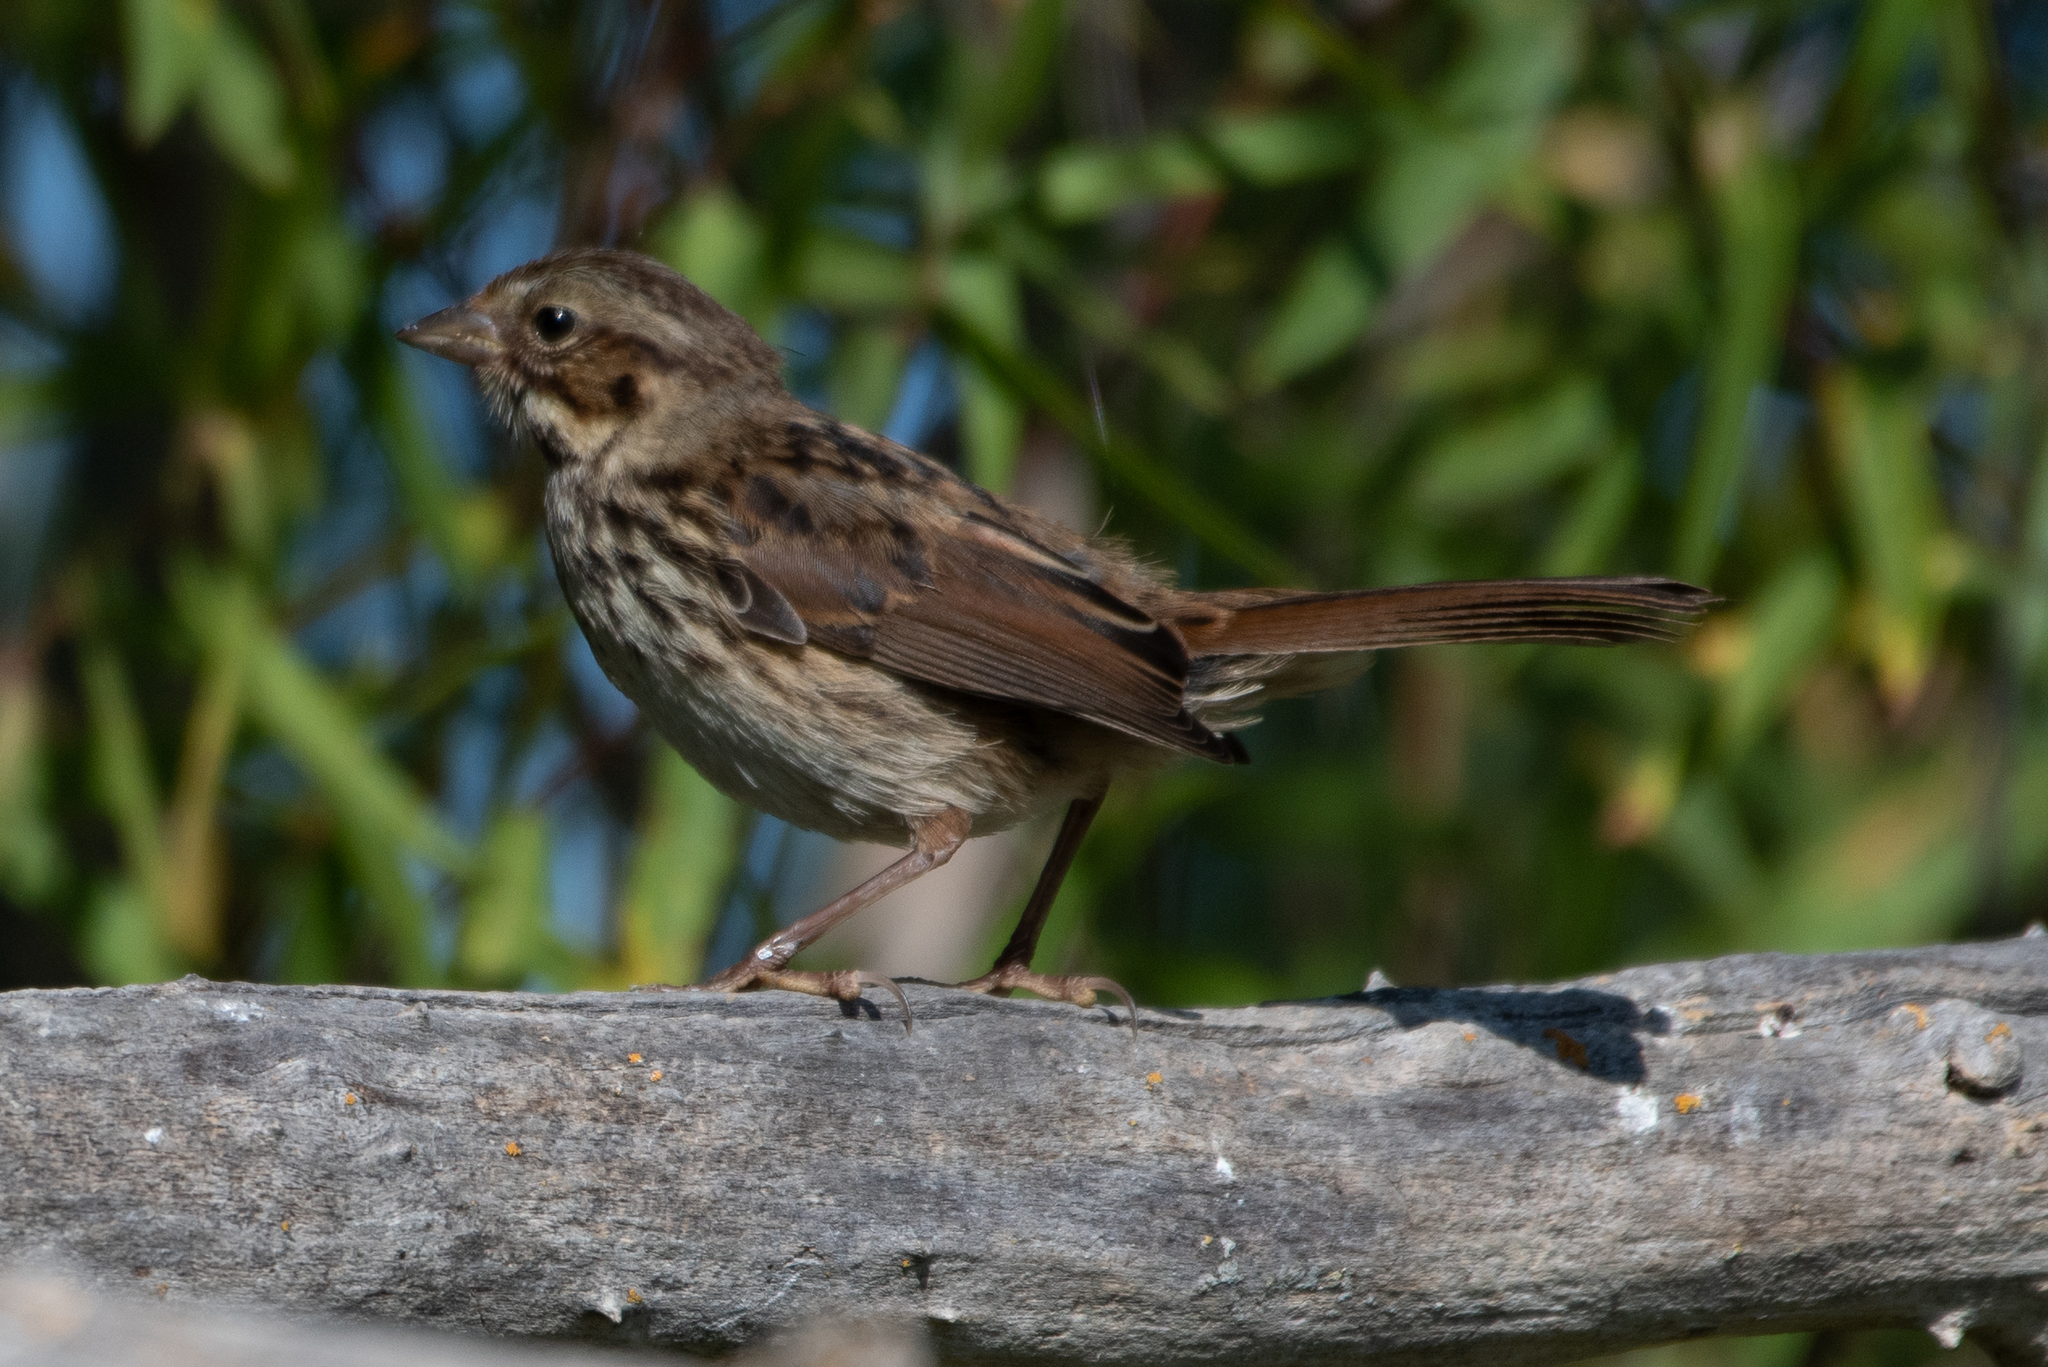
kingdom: Animalia
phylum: Chordata
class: Aves
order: Passeriformes
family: Passerellidae
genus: Melospiza
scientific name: Melospiza melodia
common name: Song sparrow
